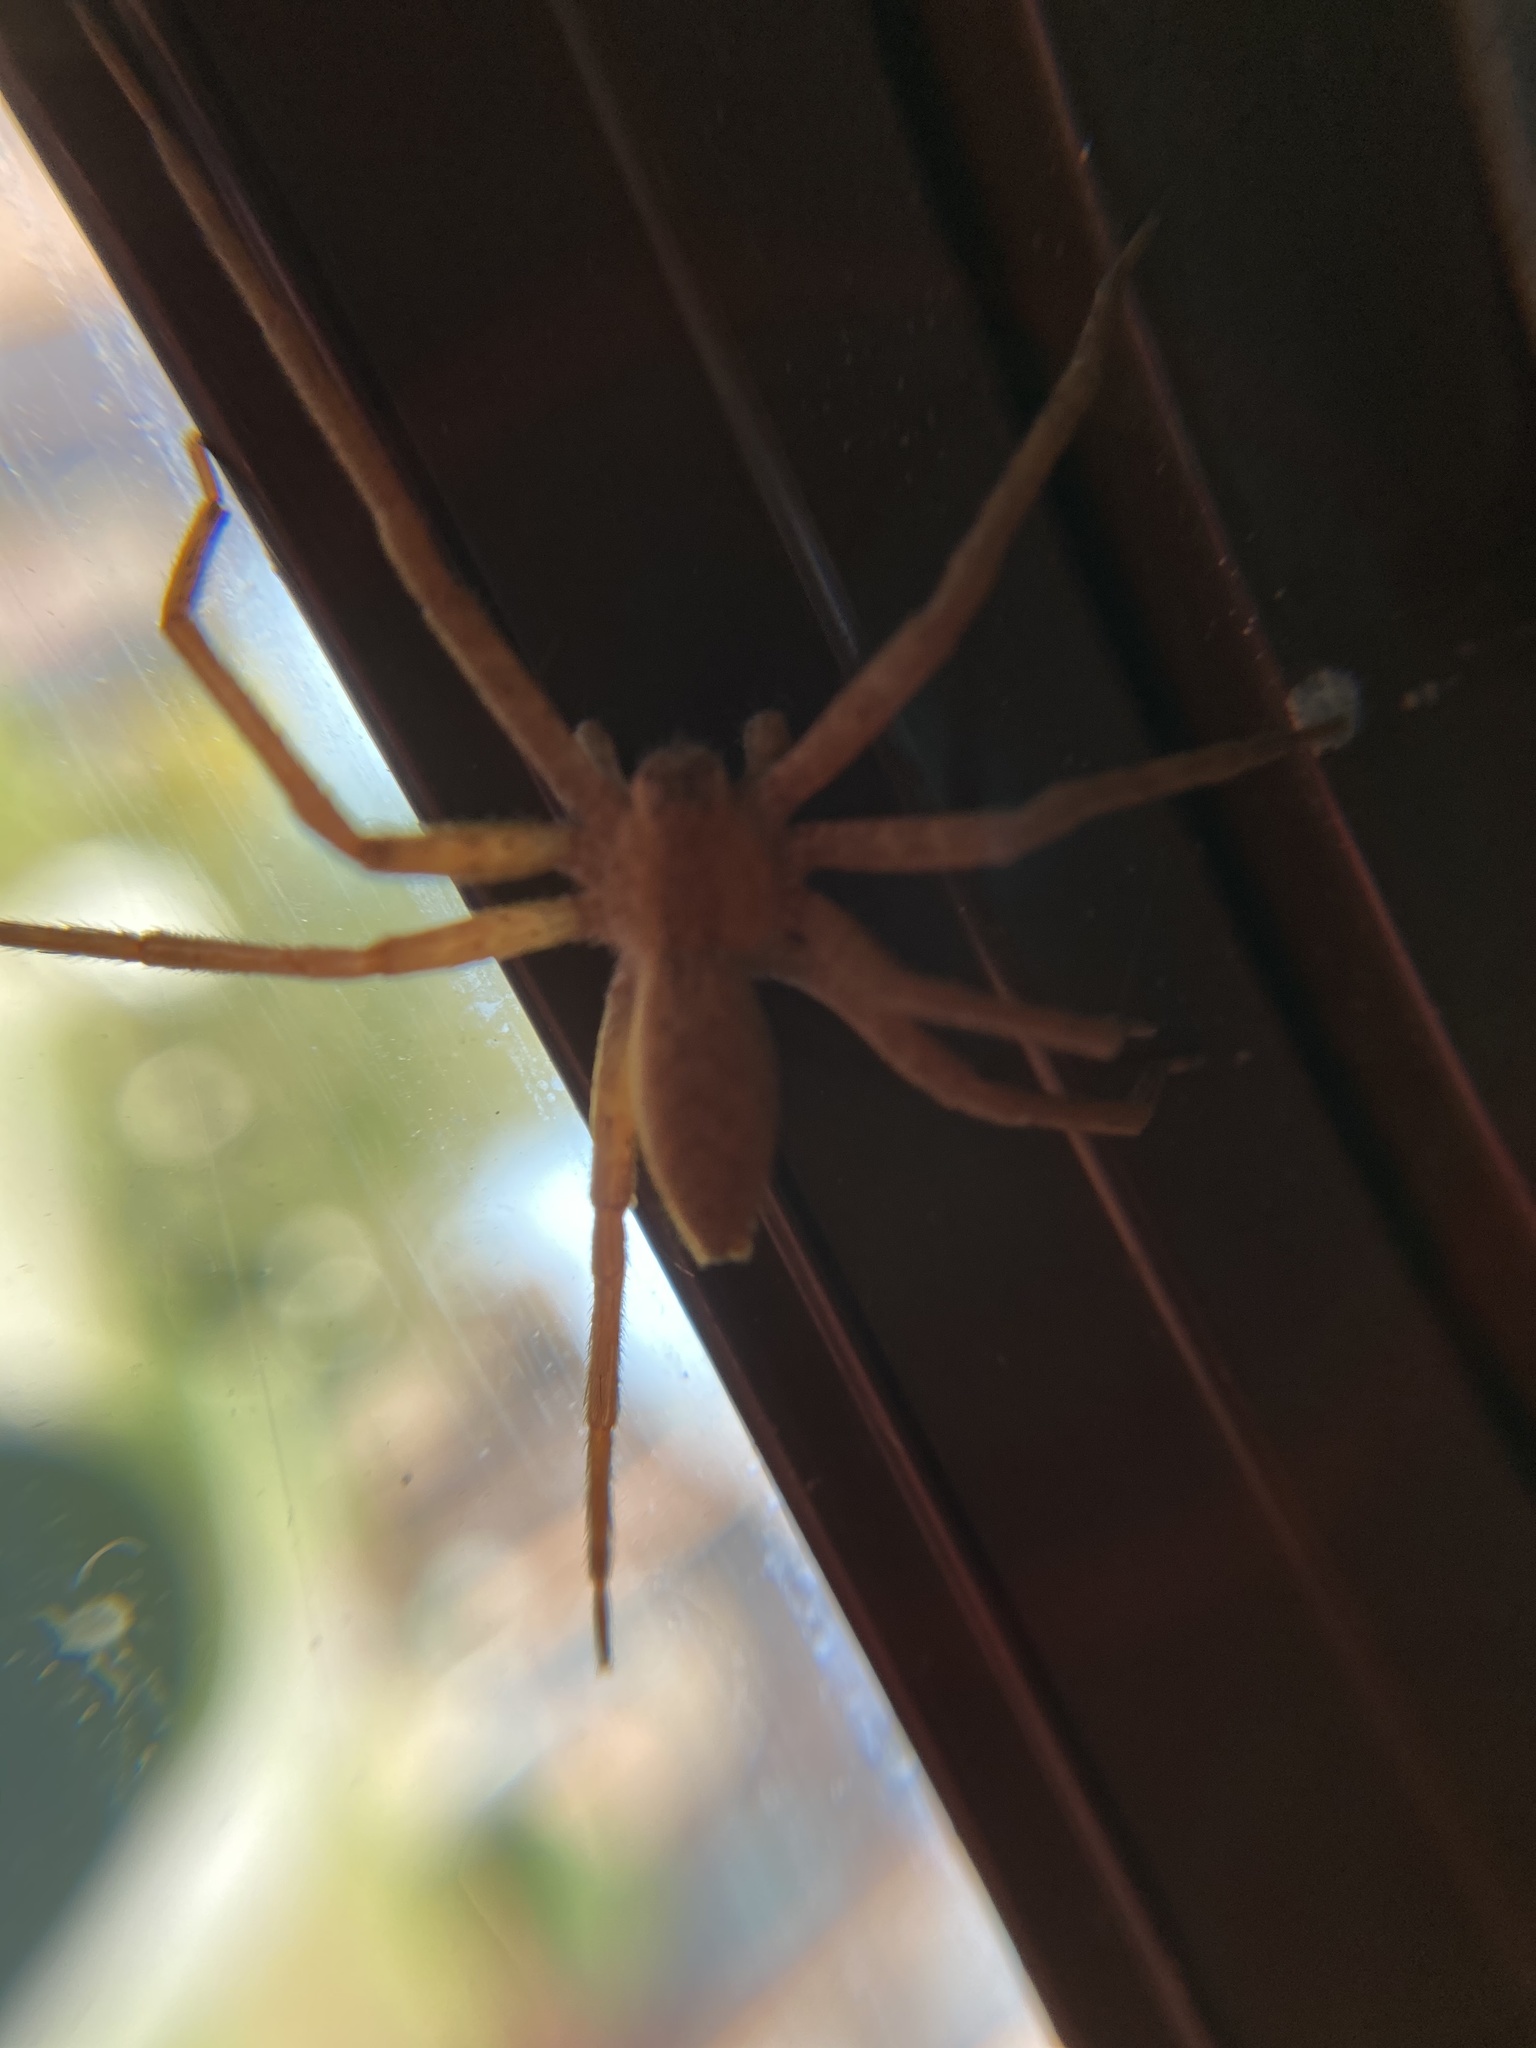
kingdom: Animalia
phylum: Arthropoda
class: Arachnida
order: Araneae
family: Pisauridae
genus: Pisaurina
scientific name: Pisaurina mira
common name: American nursery web spider
